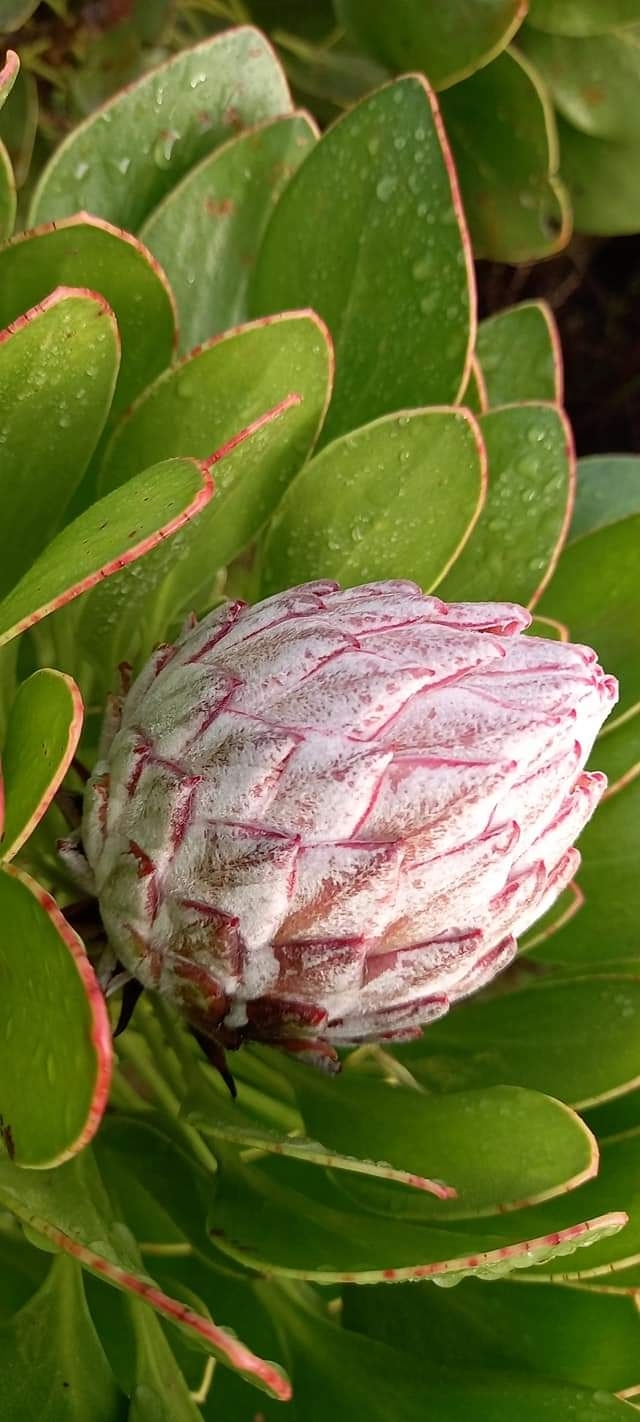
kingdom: Plantae
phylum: Tracheophyta
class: Magnoliopsida
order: Proteales
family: Proteaceae
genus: Protea
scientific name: Protea cynaroides
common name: King protea
